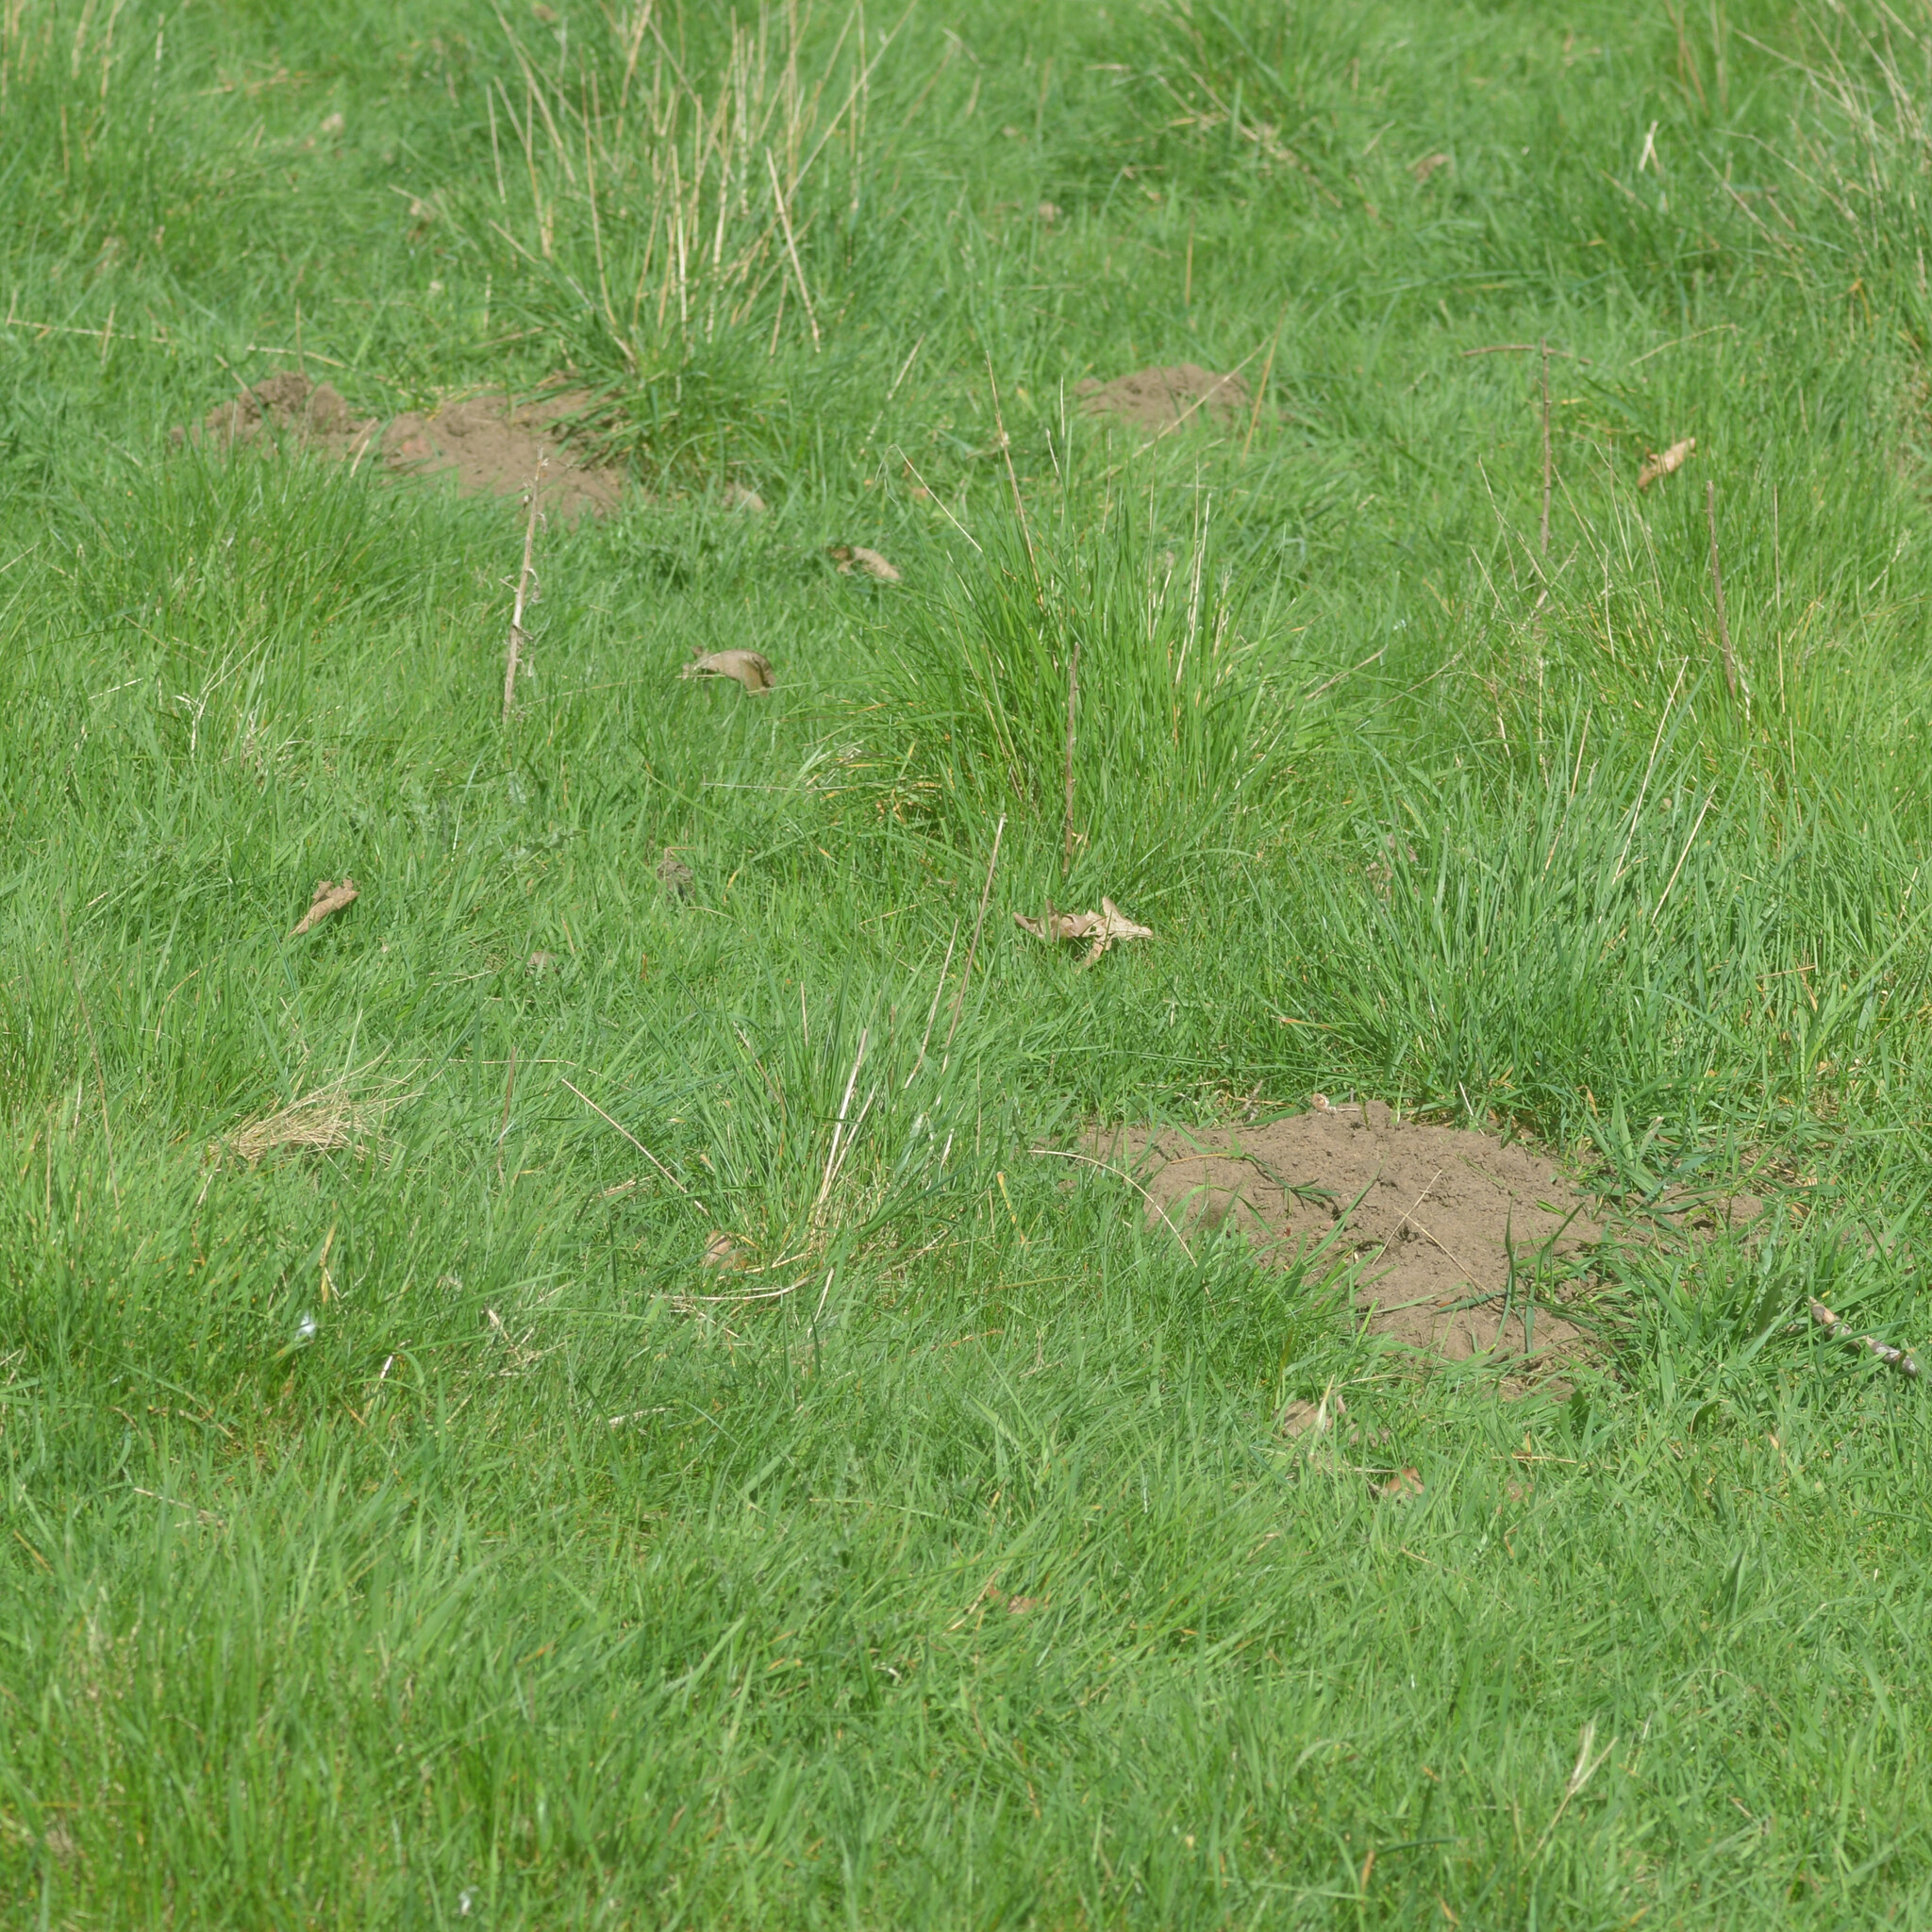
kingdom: Animalia
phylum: Chordata
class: Mammalia
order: Soricomorpha
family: Talpidae
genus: Talpa
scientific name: Talpa europaea
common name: European mole
